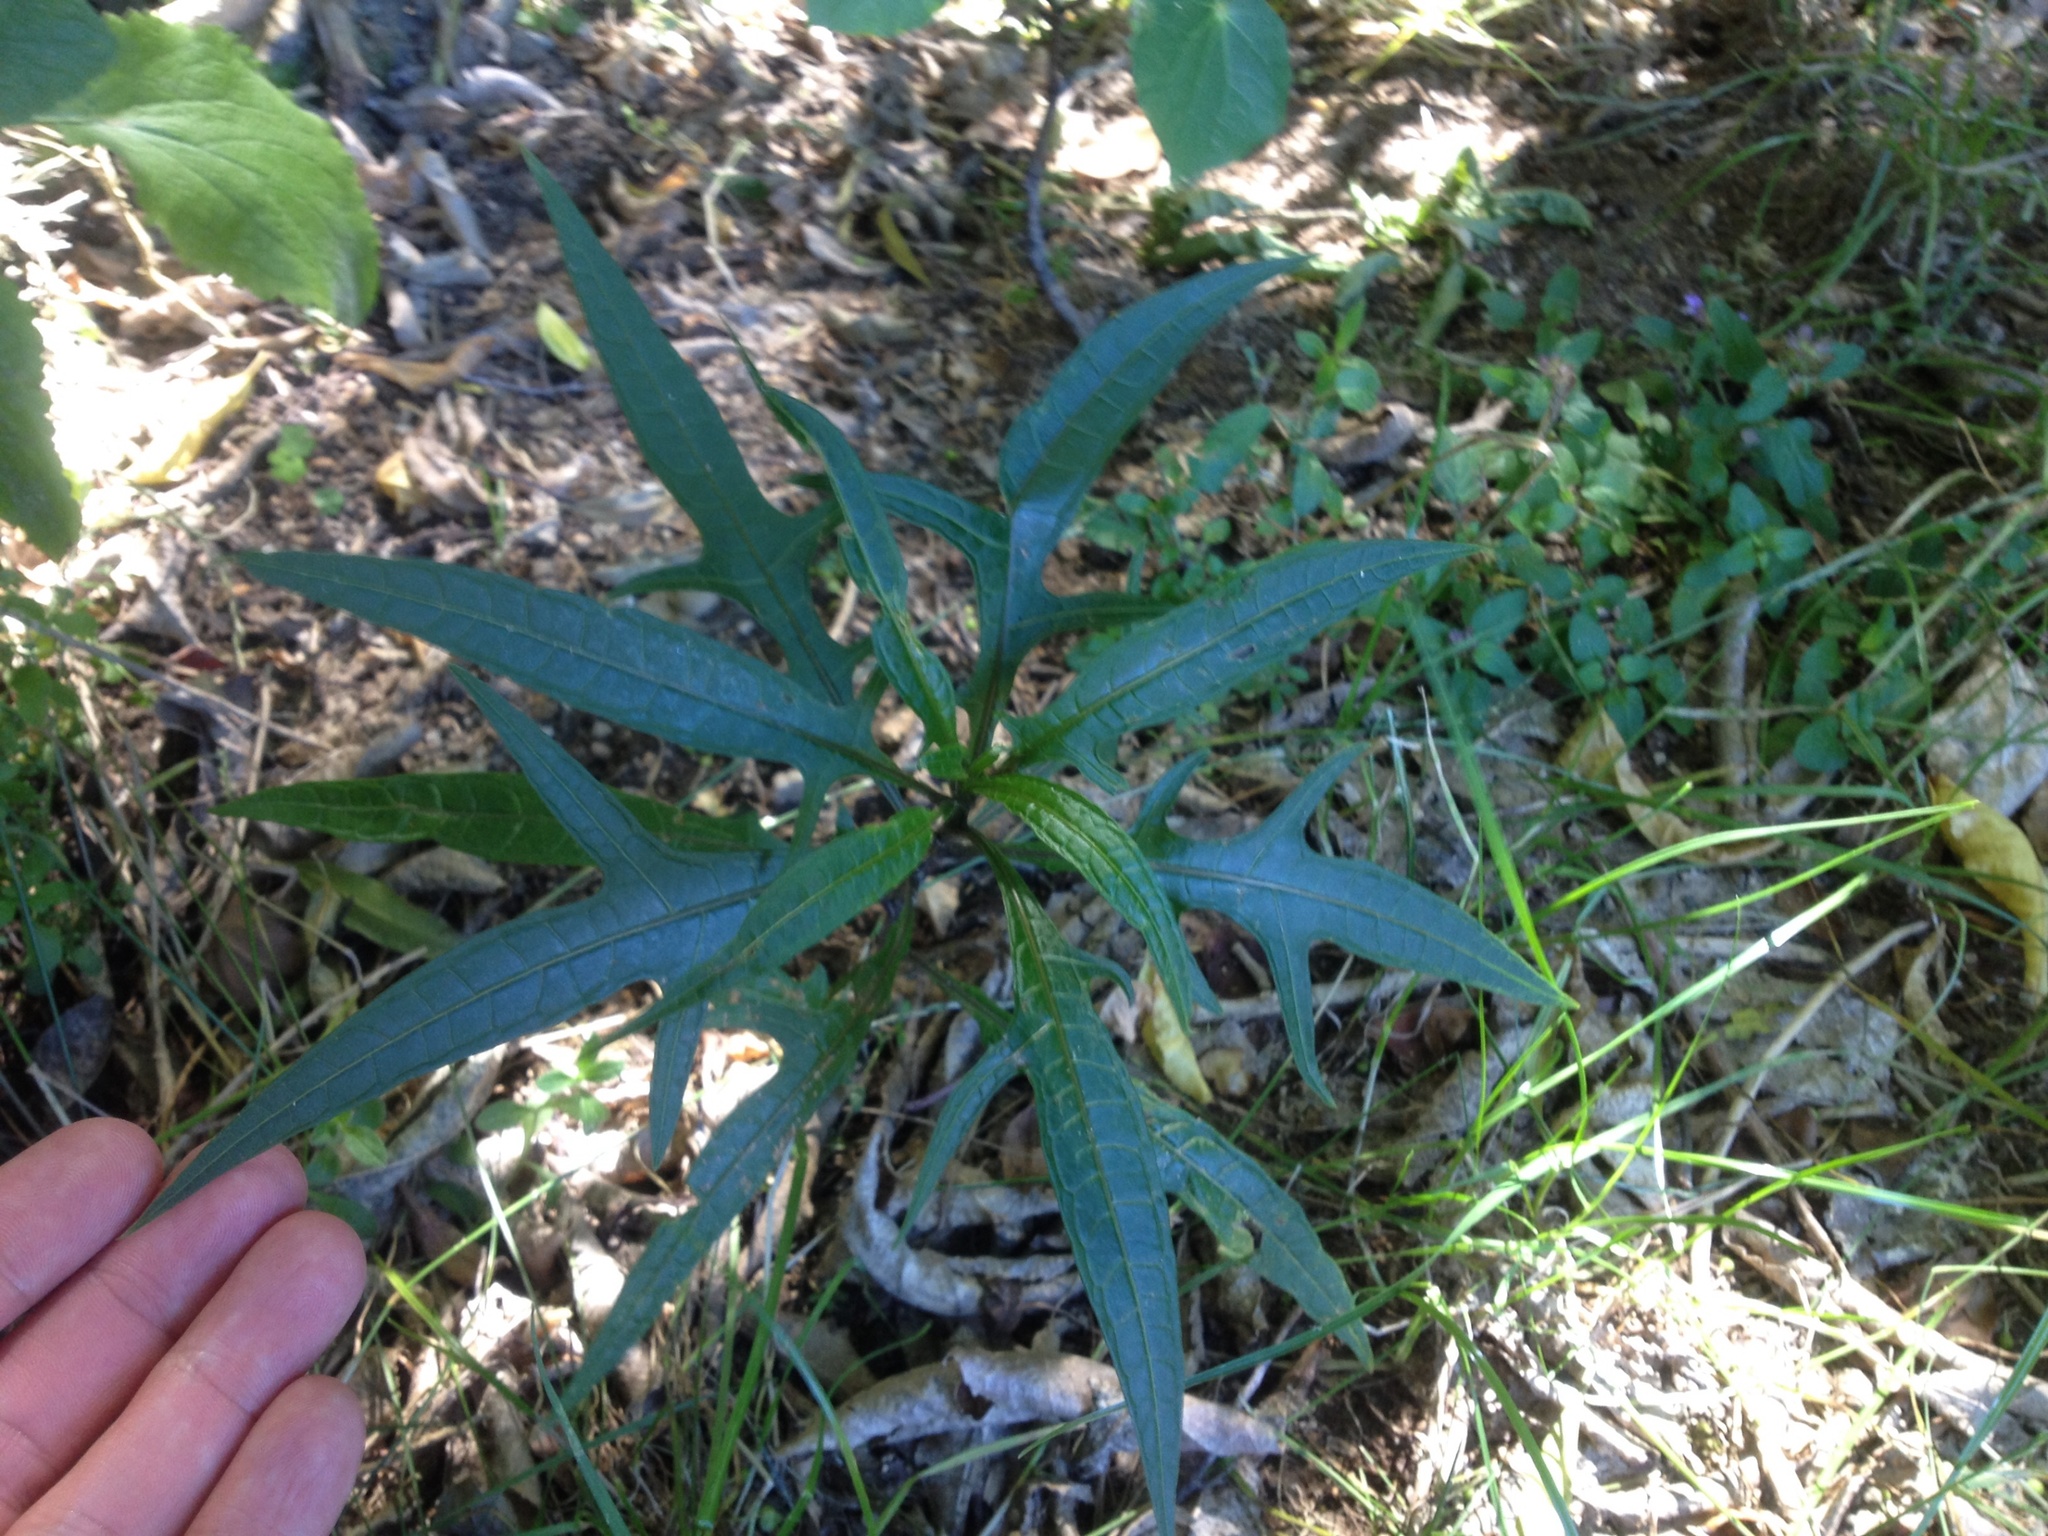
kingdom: Plantae
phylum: Tracheophyta
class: Magnoliopsida
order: Solanales
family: Solanaceae
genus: Solanum
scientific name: Solanum
